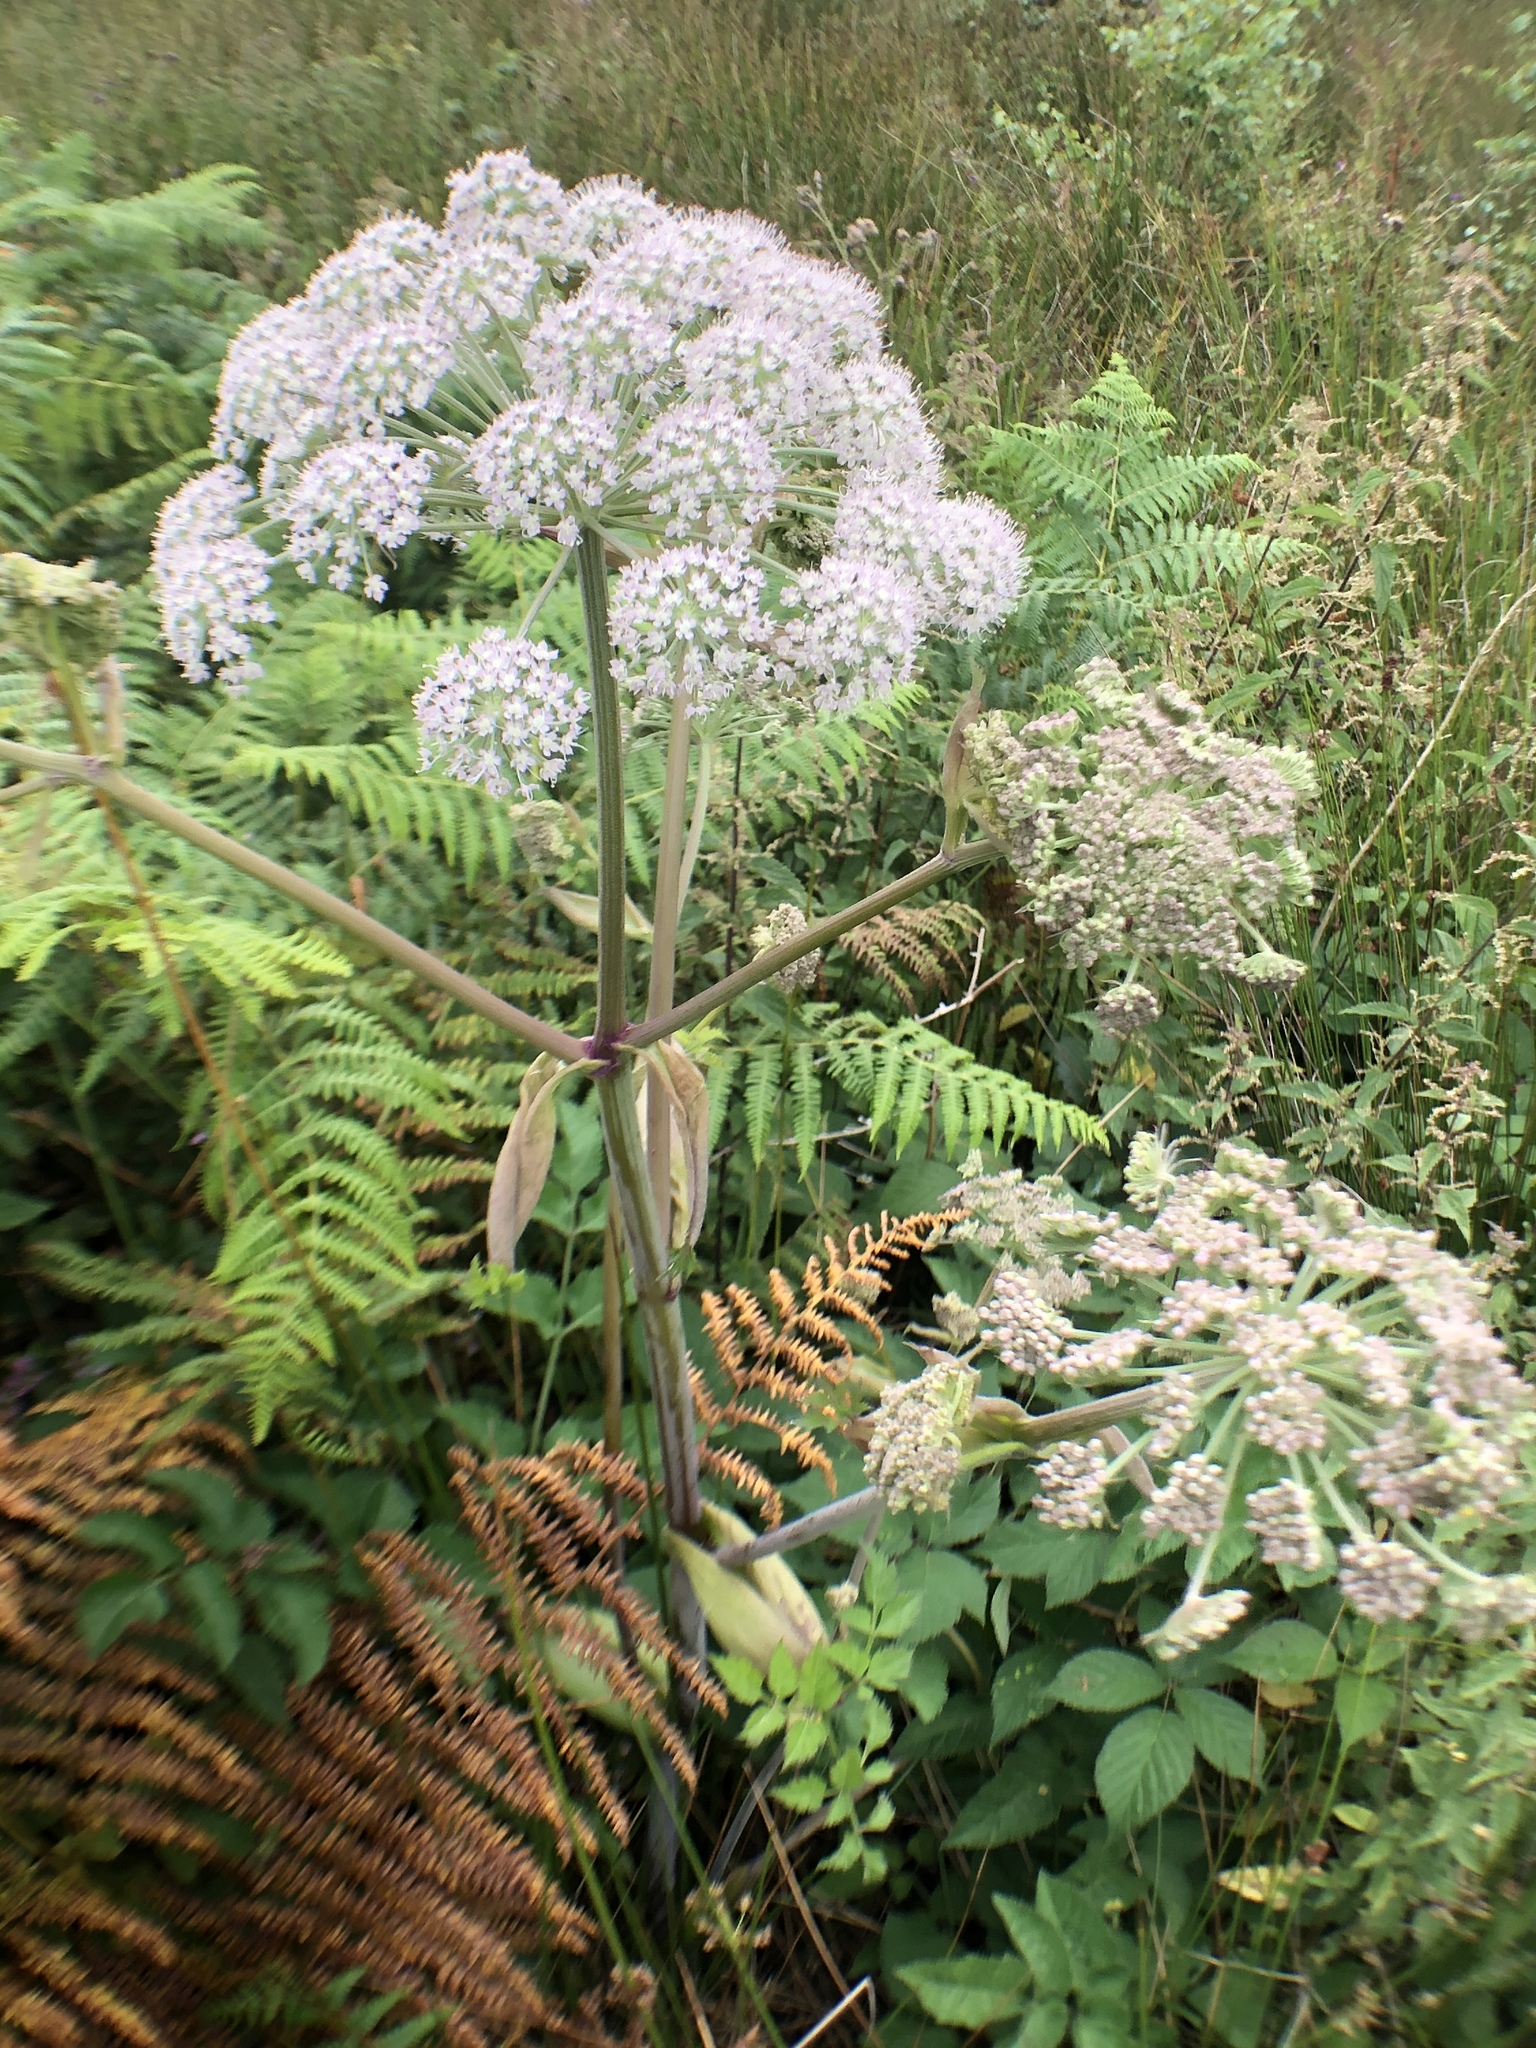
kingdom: Plantae
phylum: Tracheophyta
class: Magnoliopsida
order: Apiales
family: Apiaceae
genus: Angelica
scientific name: Angelica sylvestris
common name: Wild angelica
